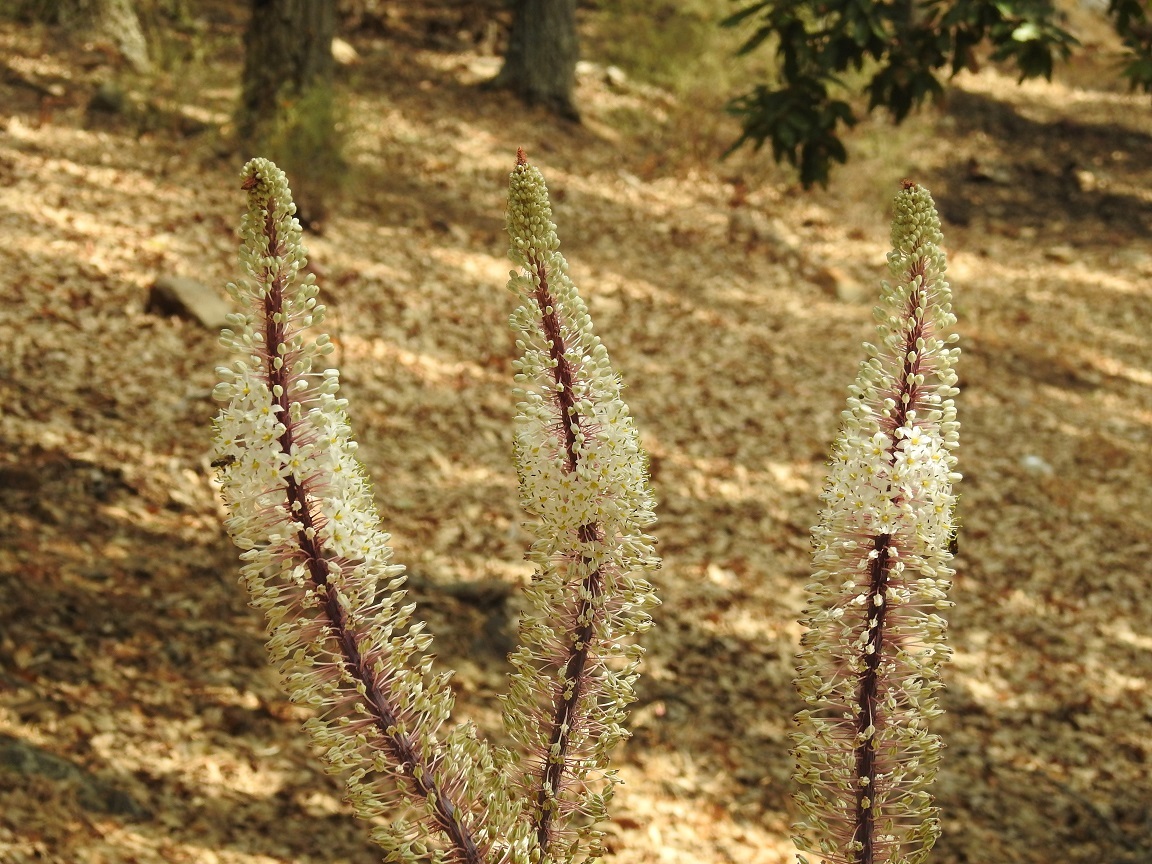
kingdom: Plantae
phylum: Tracheophyta
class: Liliopsida
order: Asparagales
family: Asparagaceae
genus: Drimia
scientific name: Drimia numidica
